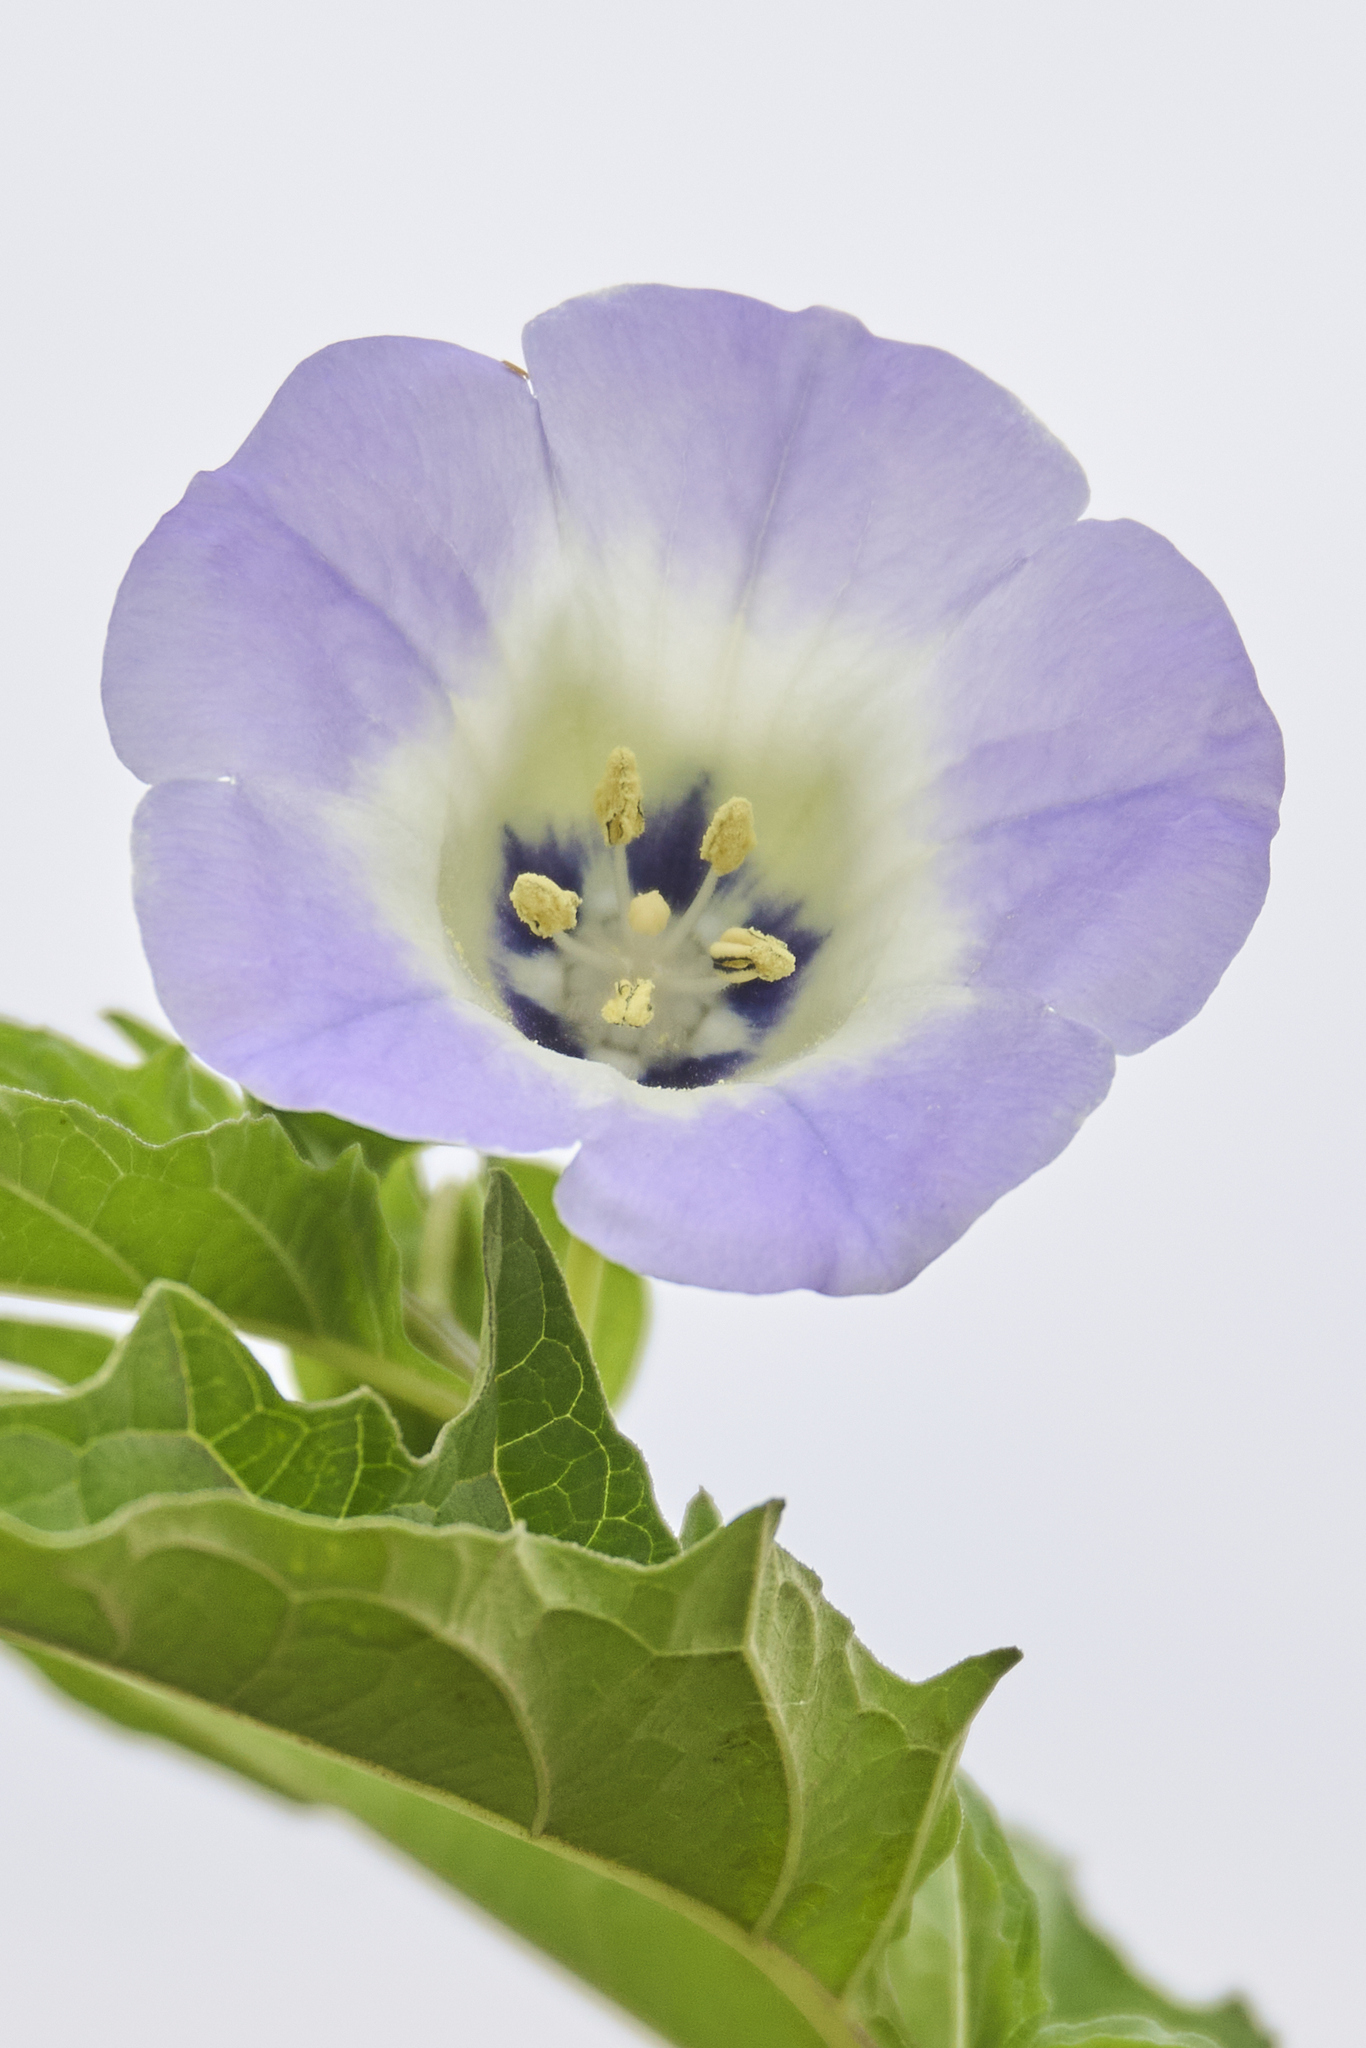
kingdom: Plantae
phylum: Tracheophyta
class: Magnoliopsida
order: Solanales
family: Solanaceae
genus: Nicandra
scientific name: Nicandra physalodes
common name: Apple-of-peru
